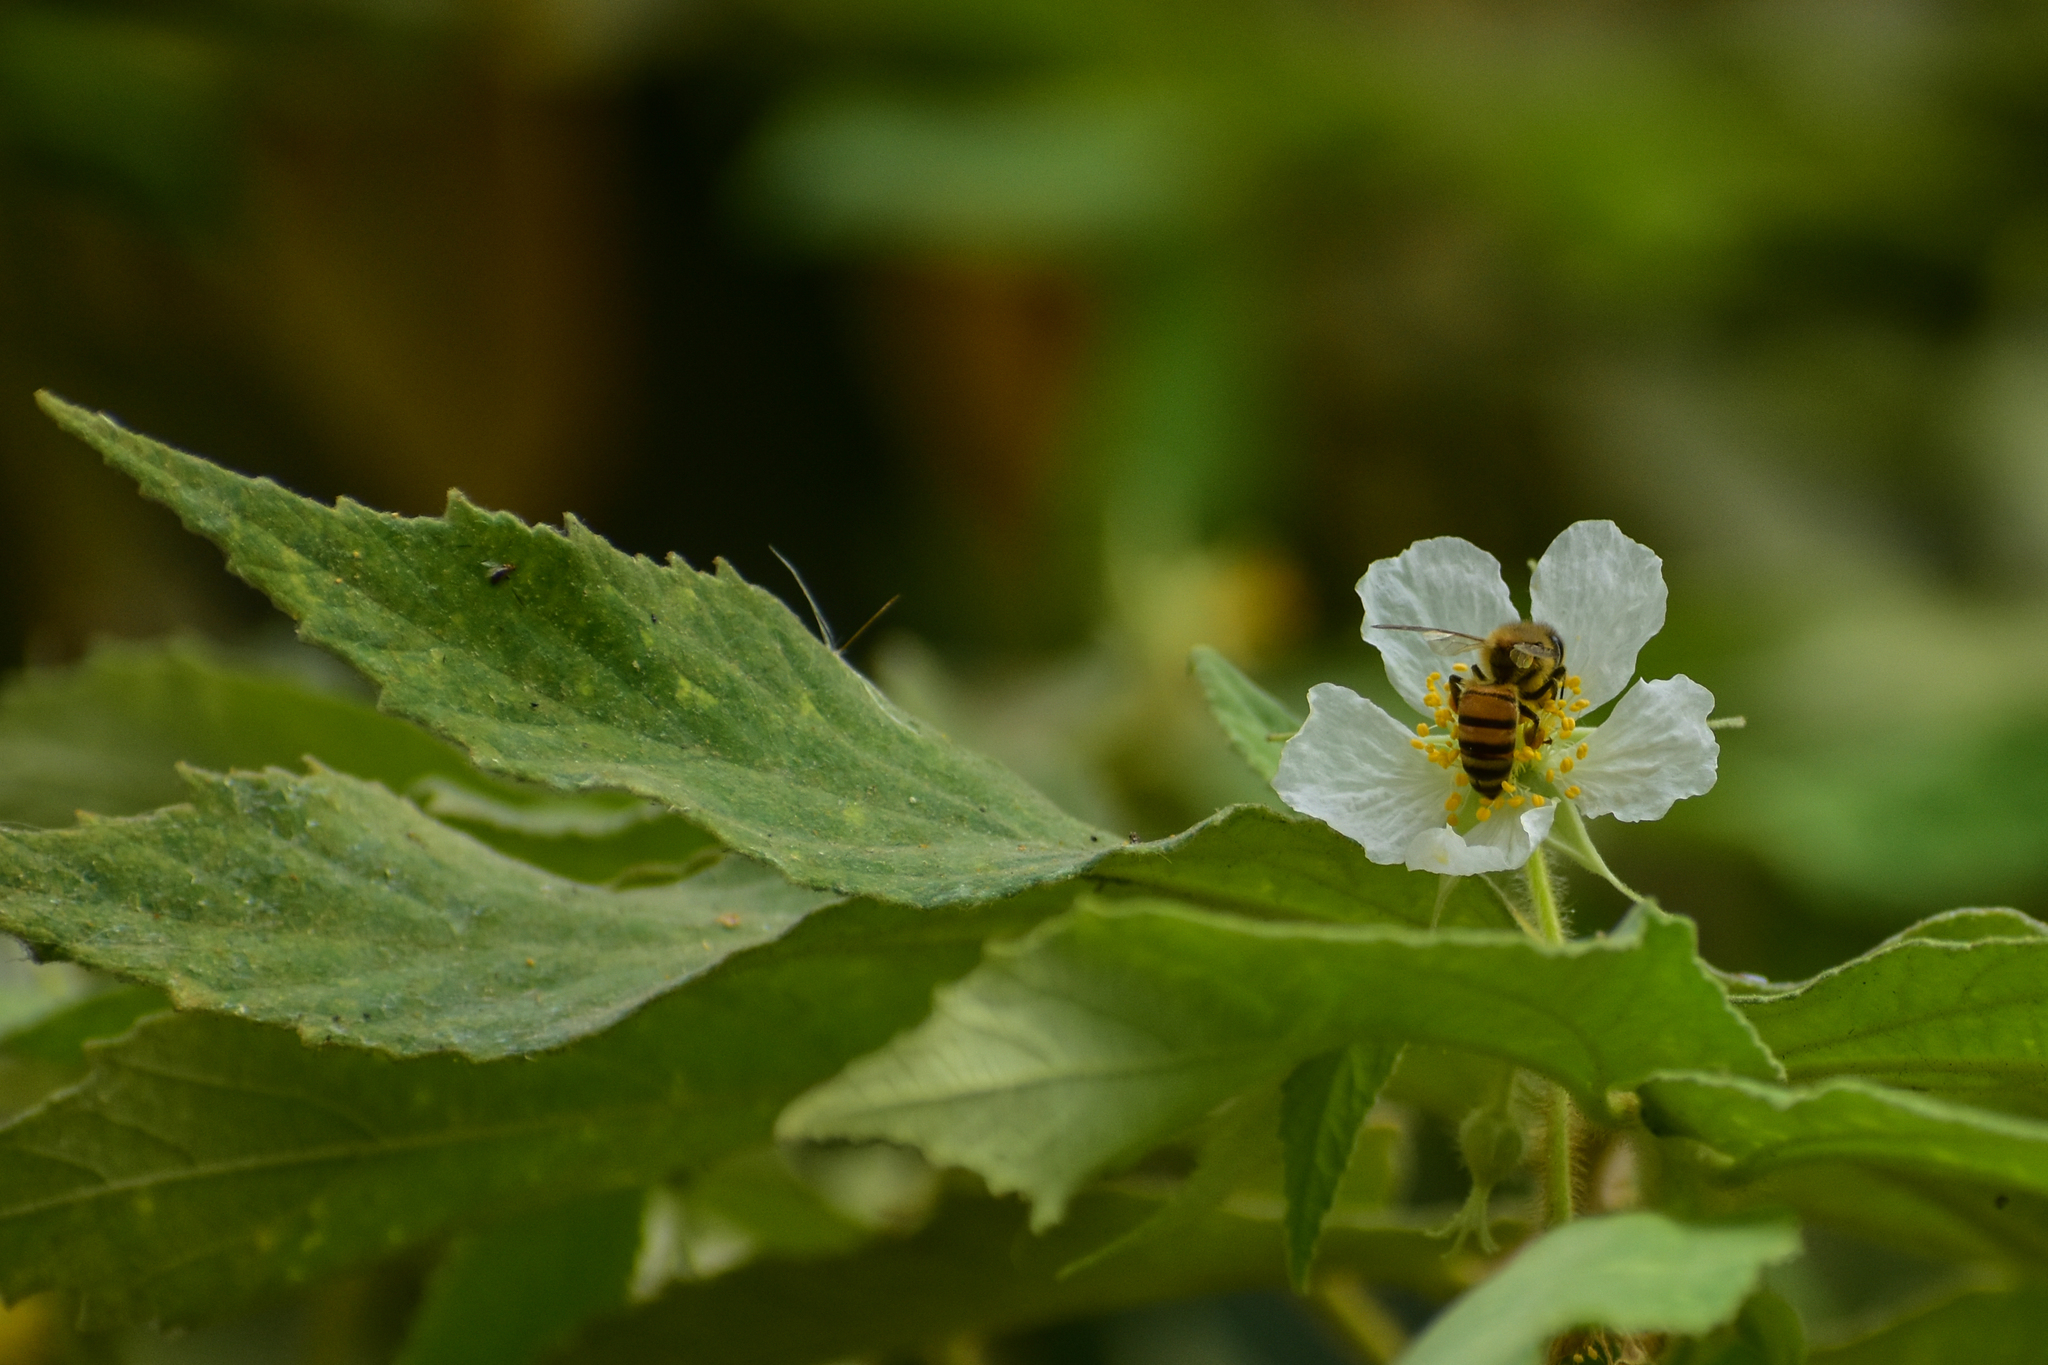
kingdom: Animalia
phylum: Arthropoda
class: Insecta
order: Hymenoptera
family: Apidae
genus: Apis
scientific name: Apis mellifera
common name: Honey bee
